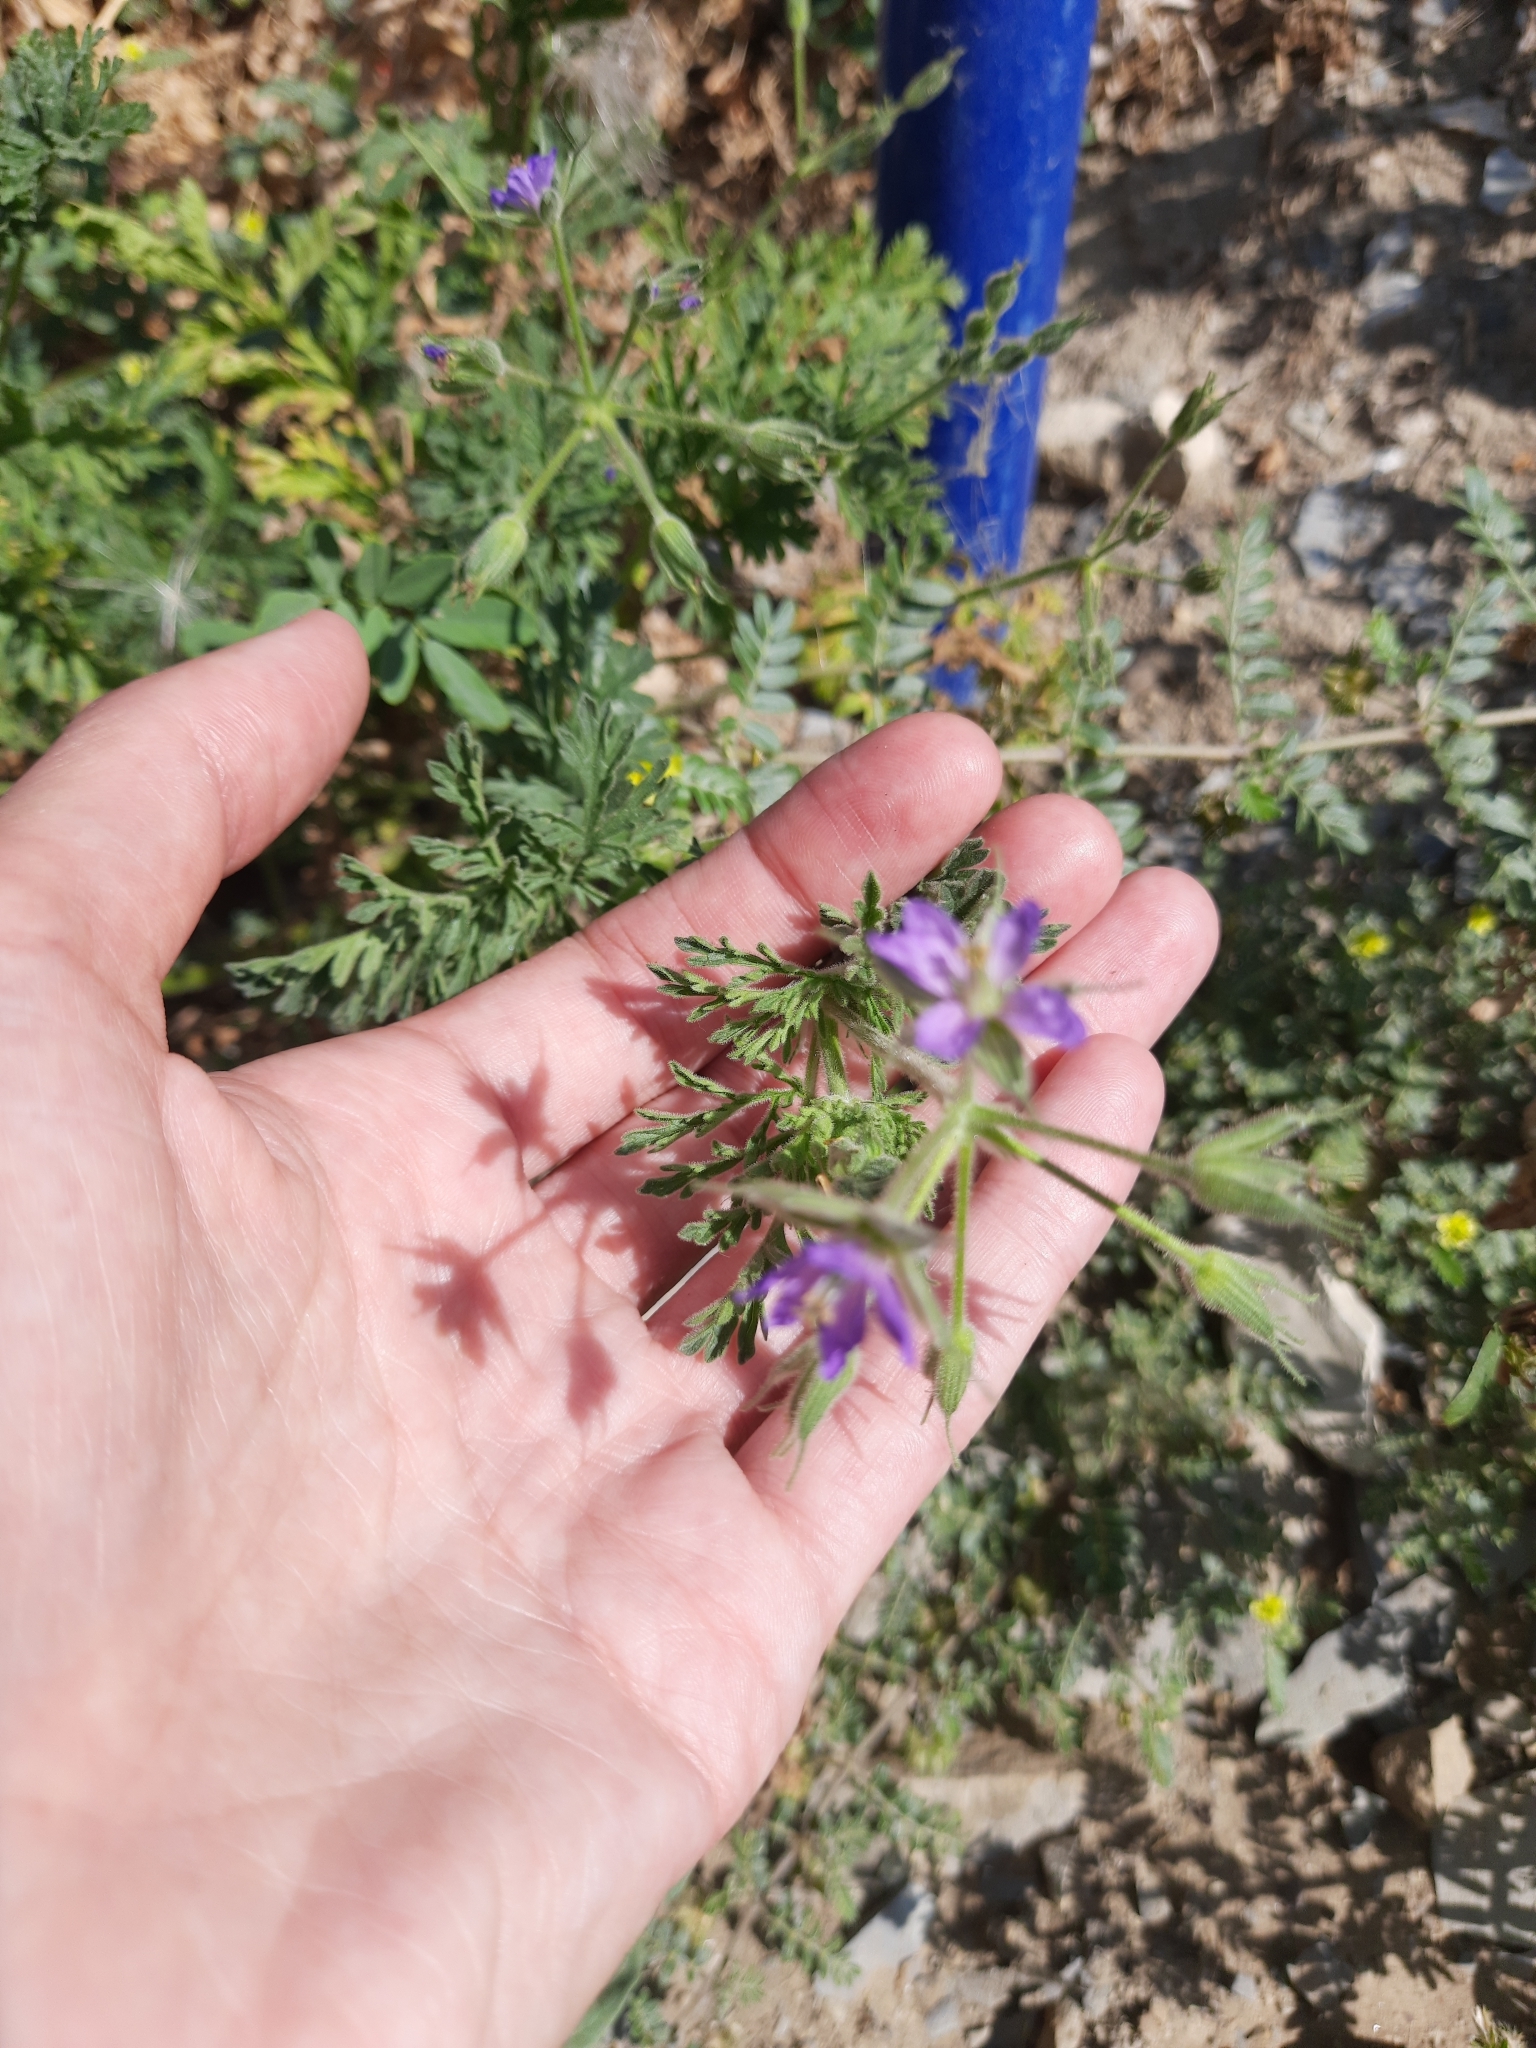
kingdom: Plantae
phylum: Tracheophyta
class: Magnoliopsida
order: Geraniales
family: Geraniaceae
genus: Erodium
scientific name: Erodium ciconium
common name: Common stork's bill
